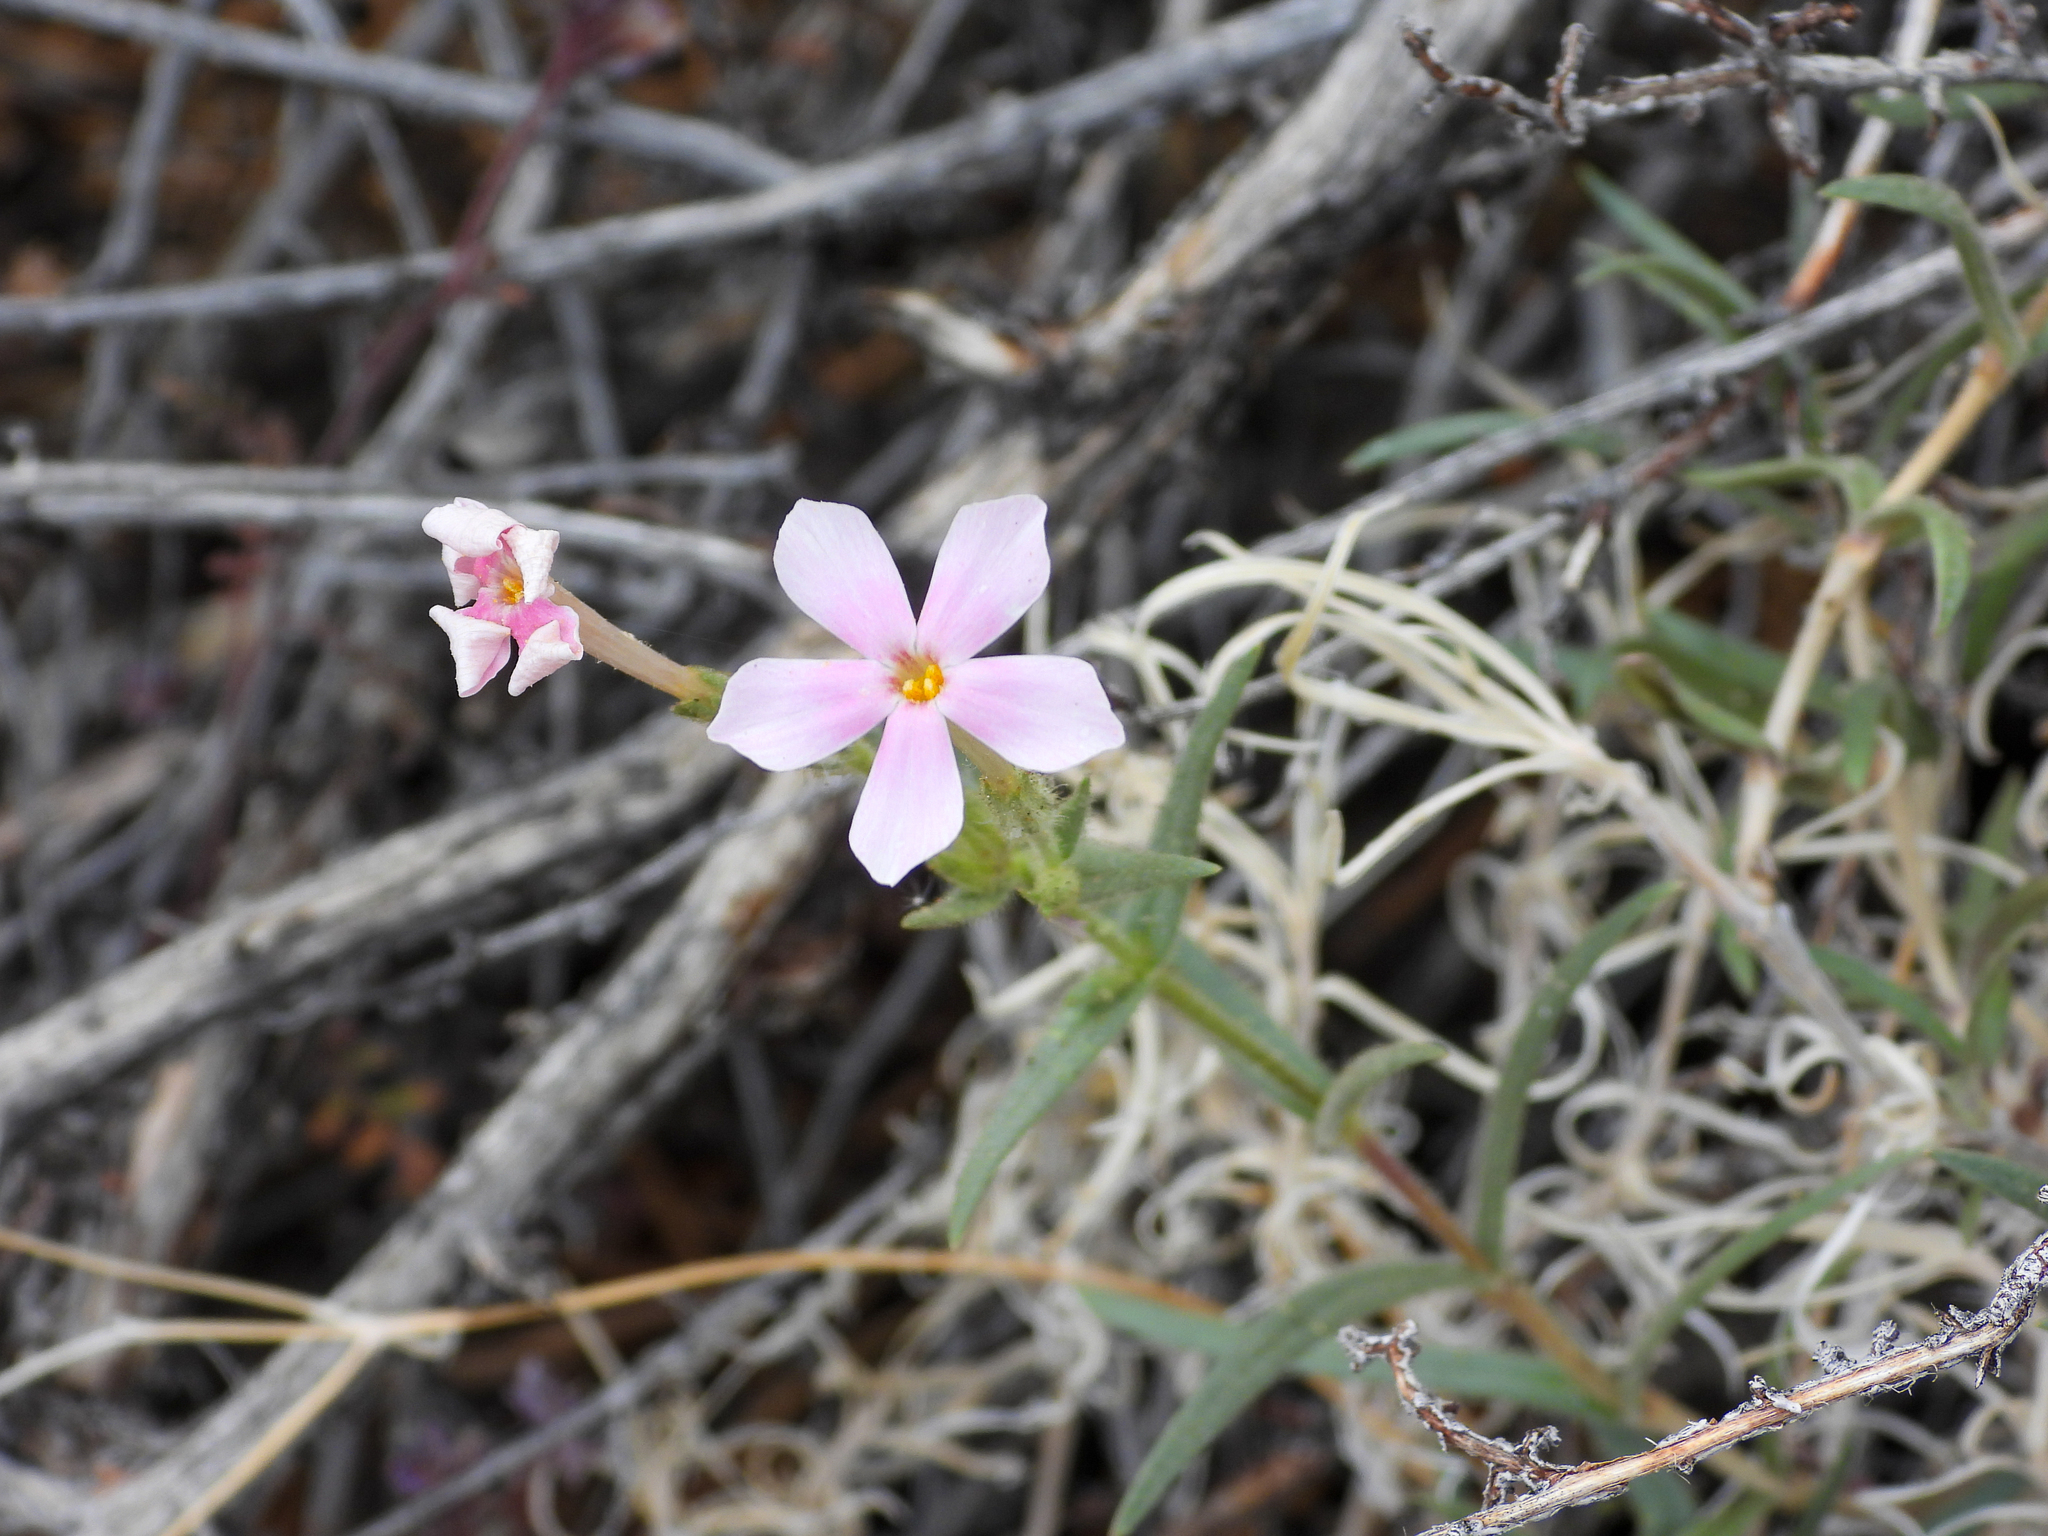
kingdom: Plantae
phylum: Tracheophyta
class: Magnoliopsida
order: Ericales
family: Polemoniaceae
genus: Phlox
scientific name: Phlox longifolia
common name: Longleaf phlox
